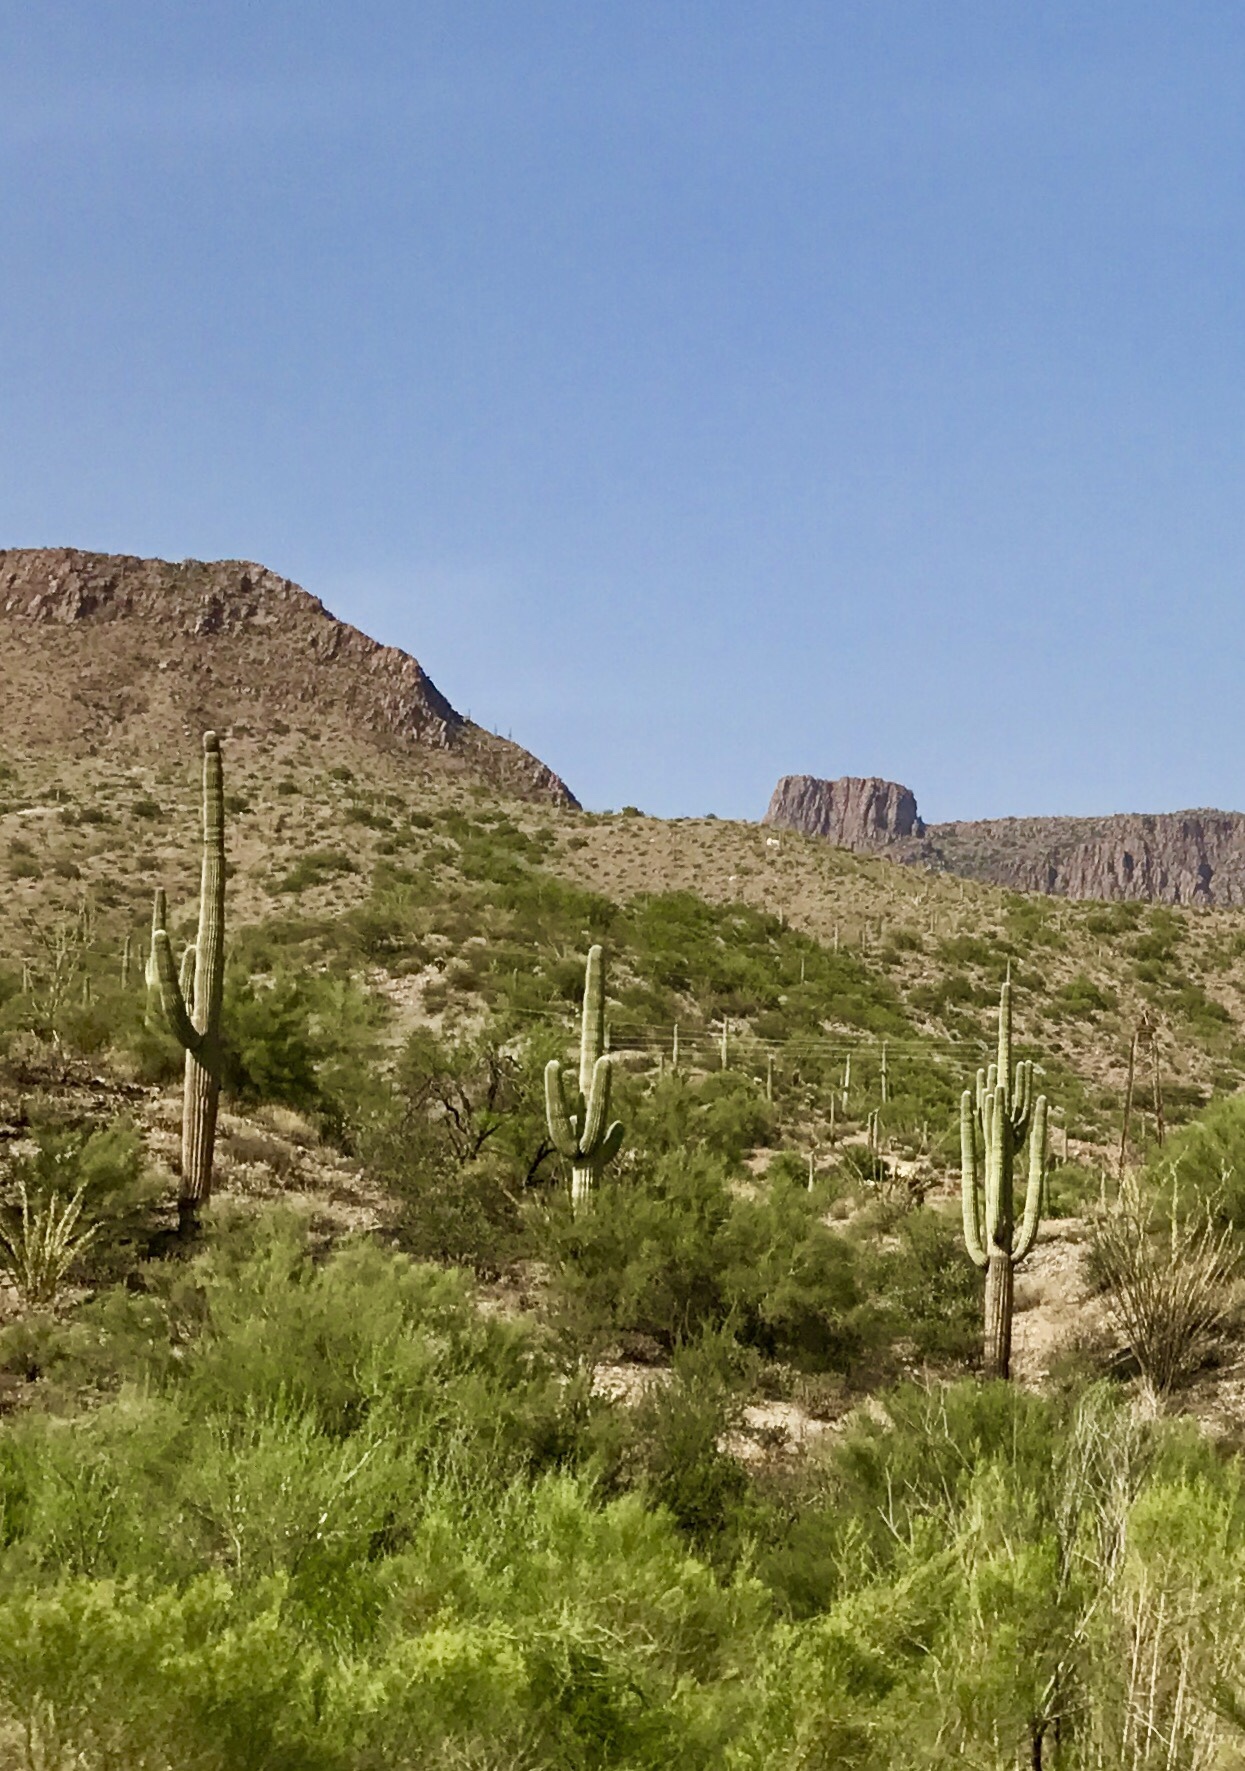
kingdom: Plantae
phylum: Tracheophyta
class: Magnoliopsida
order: Caryophyllales
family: Cactaceae
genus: Carnegiea
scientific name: Carnegiea gigantea
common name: Saguaro
